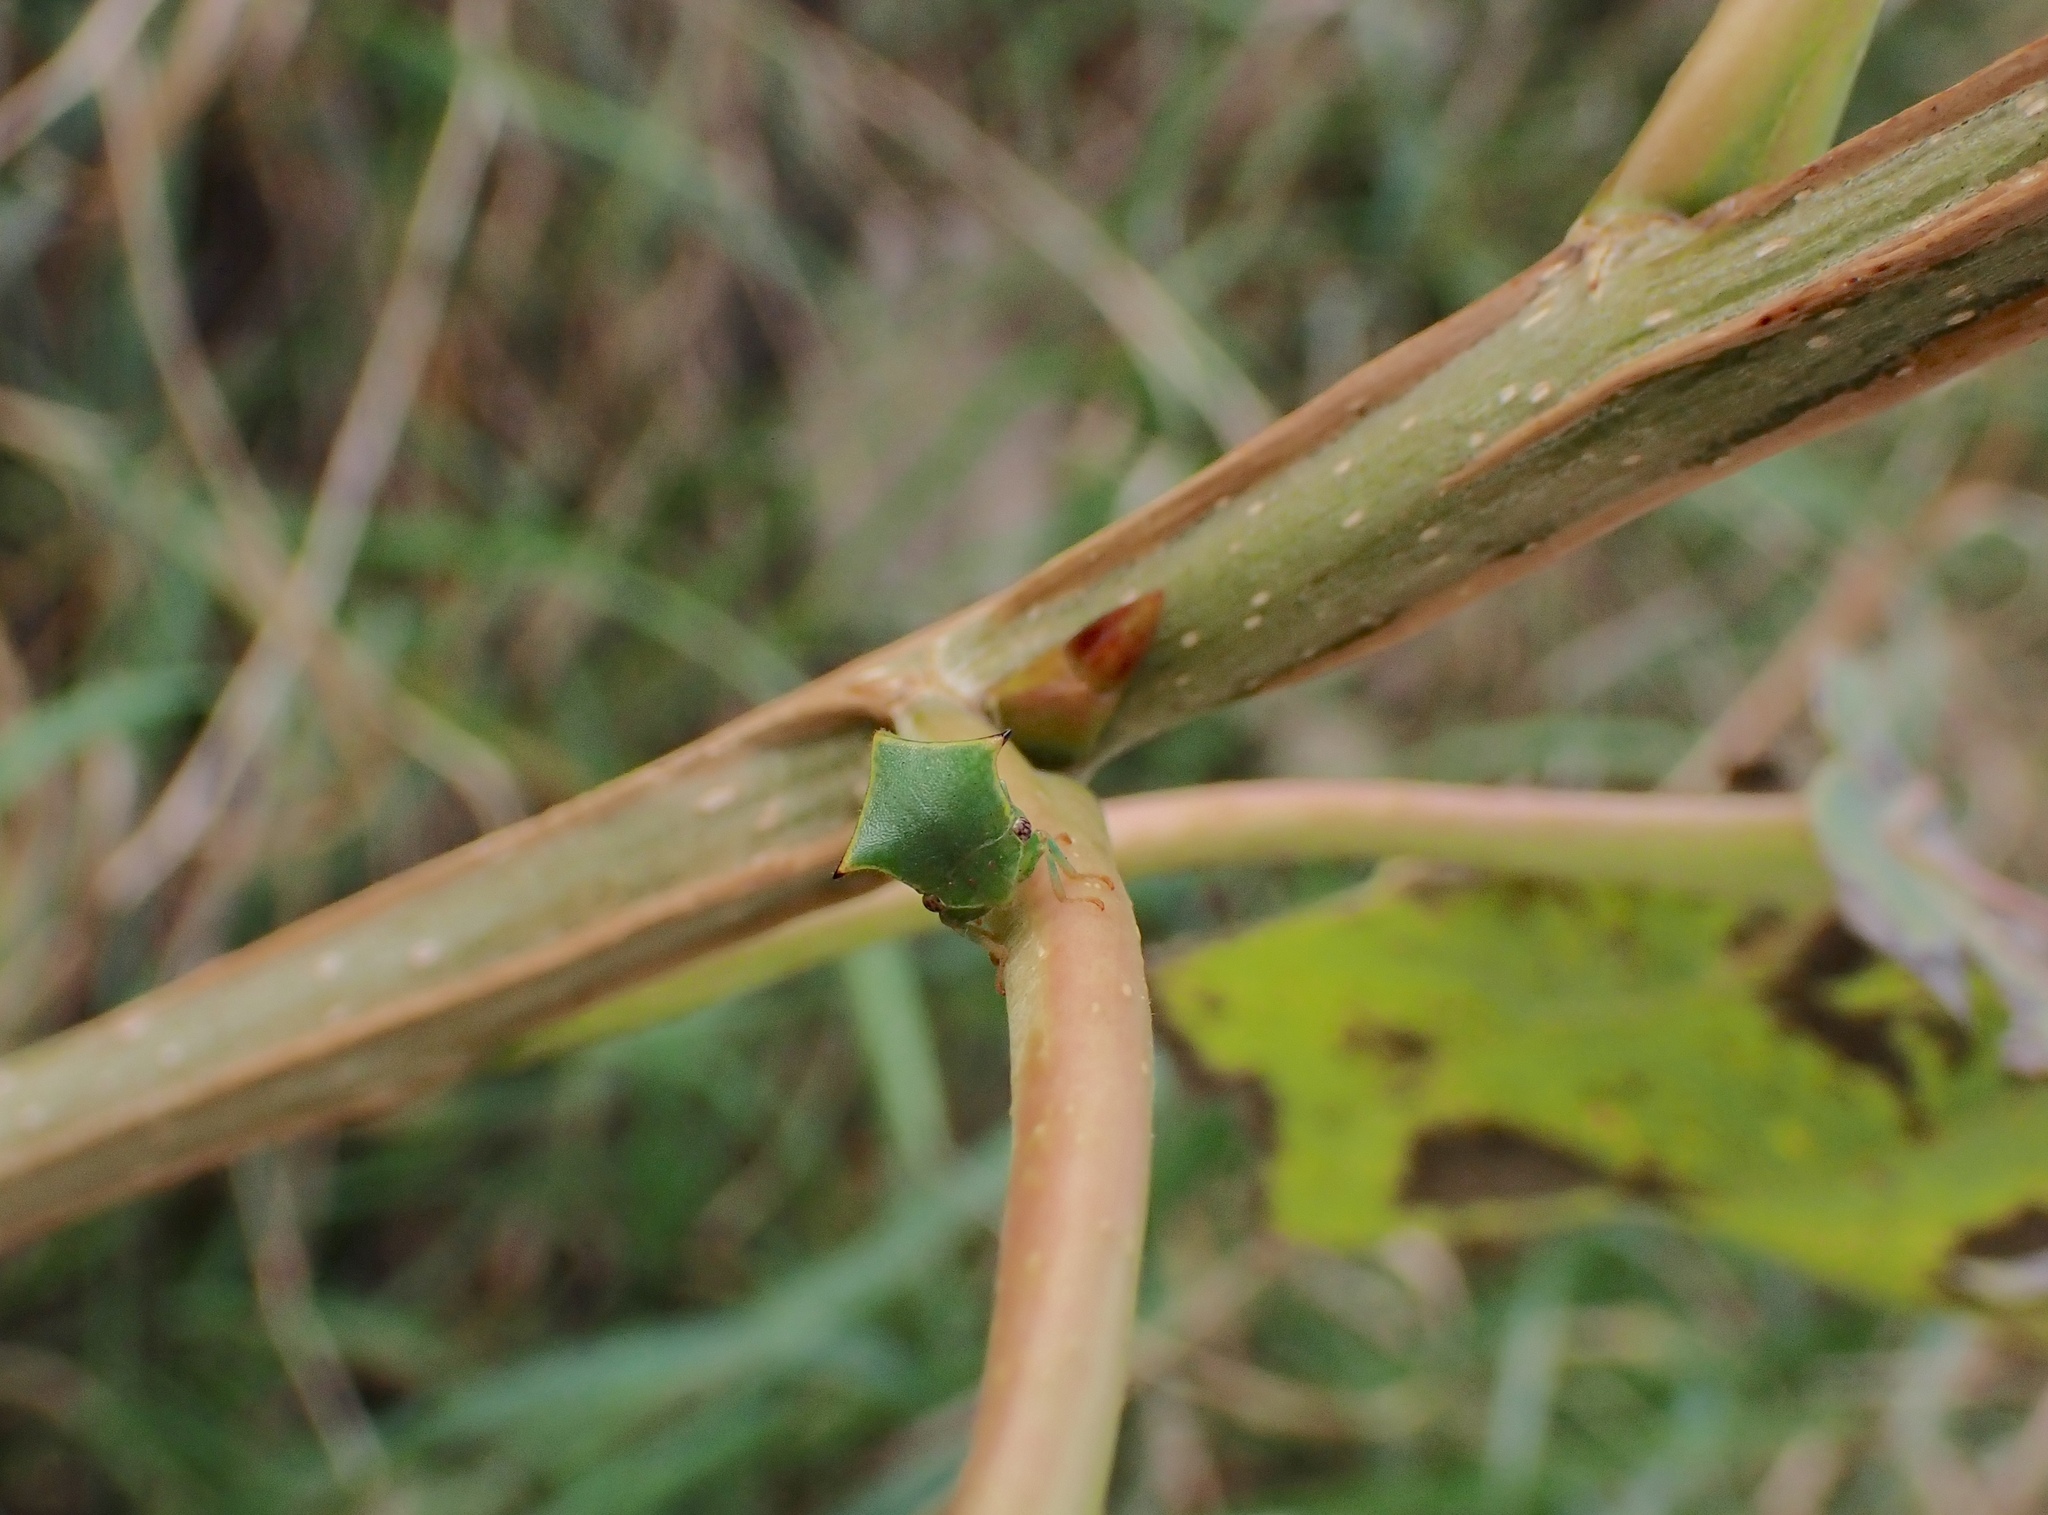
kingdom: Animalia
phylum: Arthropoda
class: Insecta
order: Hemiptera
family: Membracidae
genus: Stictocephala
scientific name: Stictocephala bisonia
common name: American buffalo treehopper
